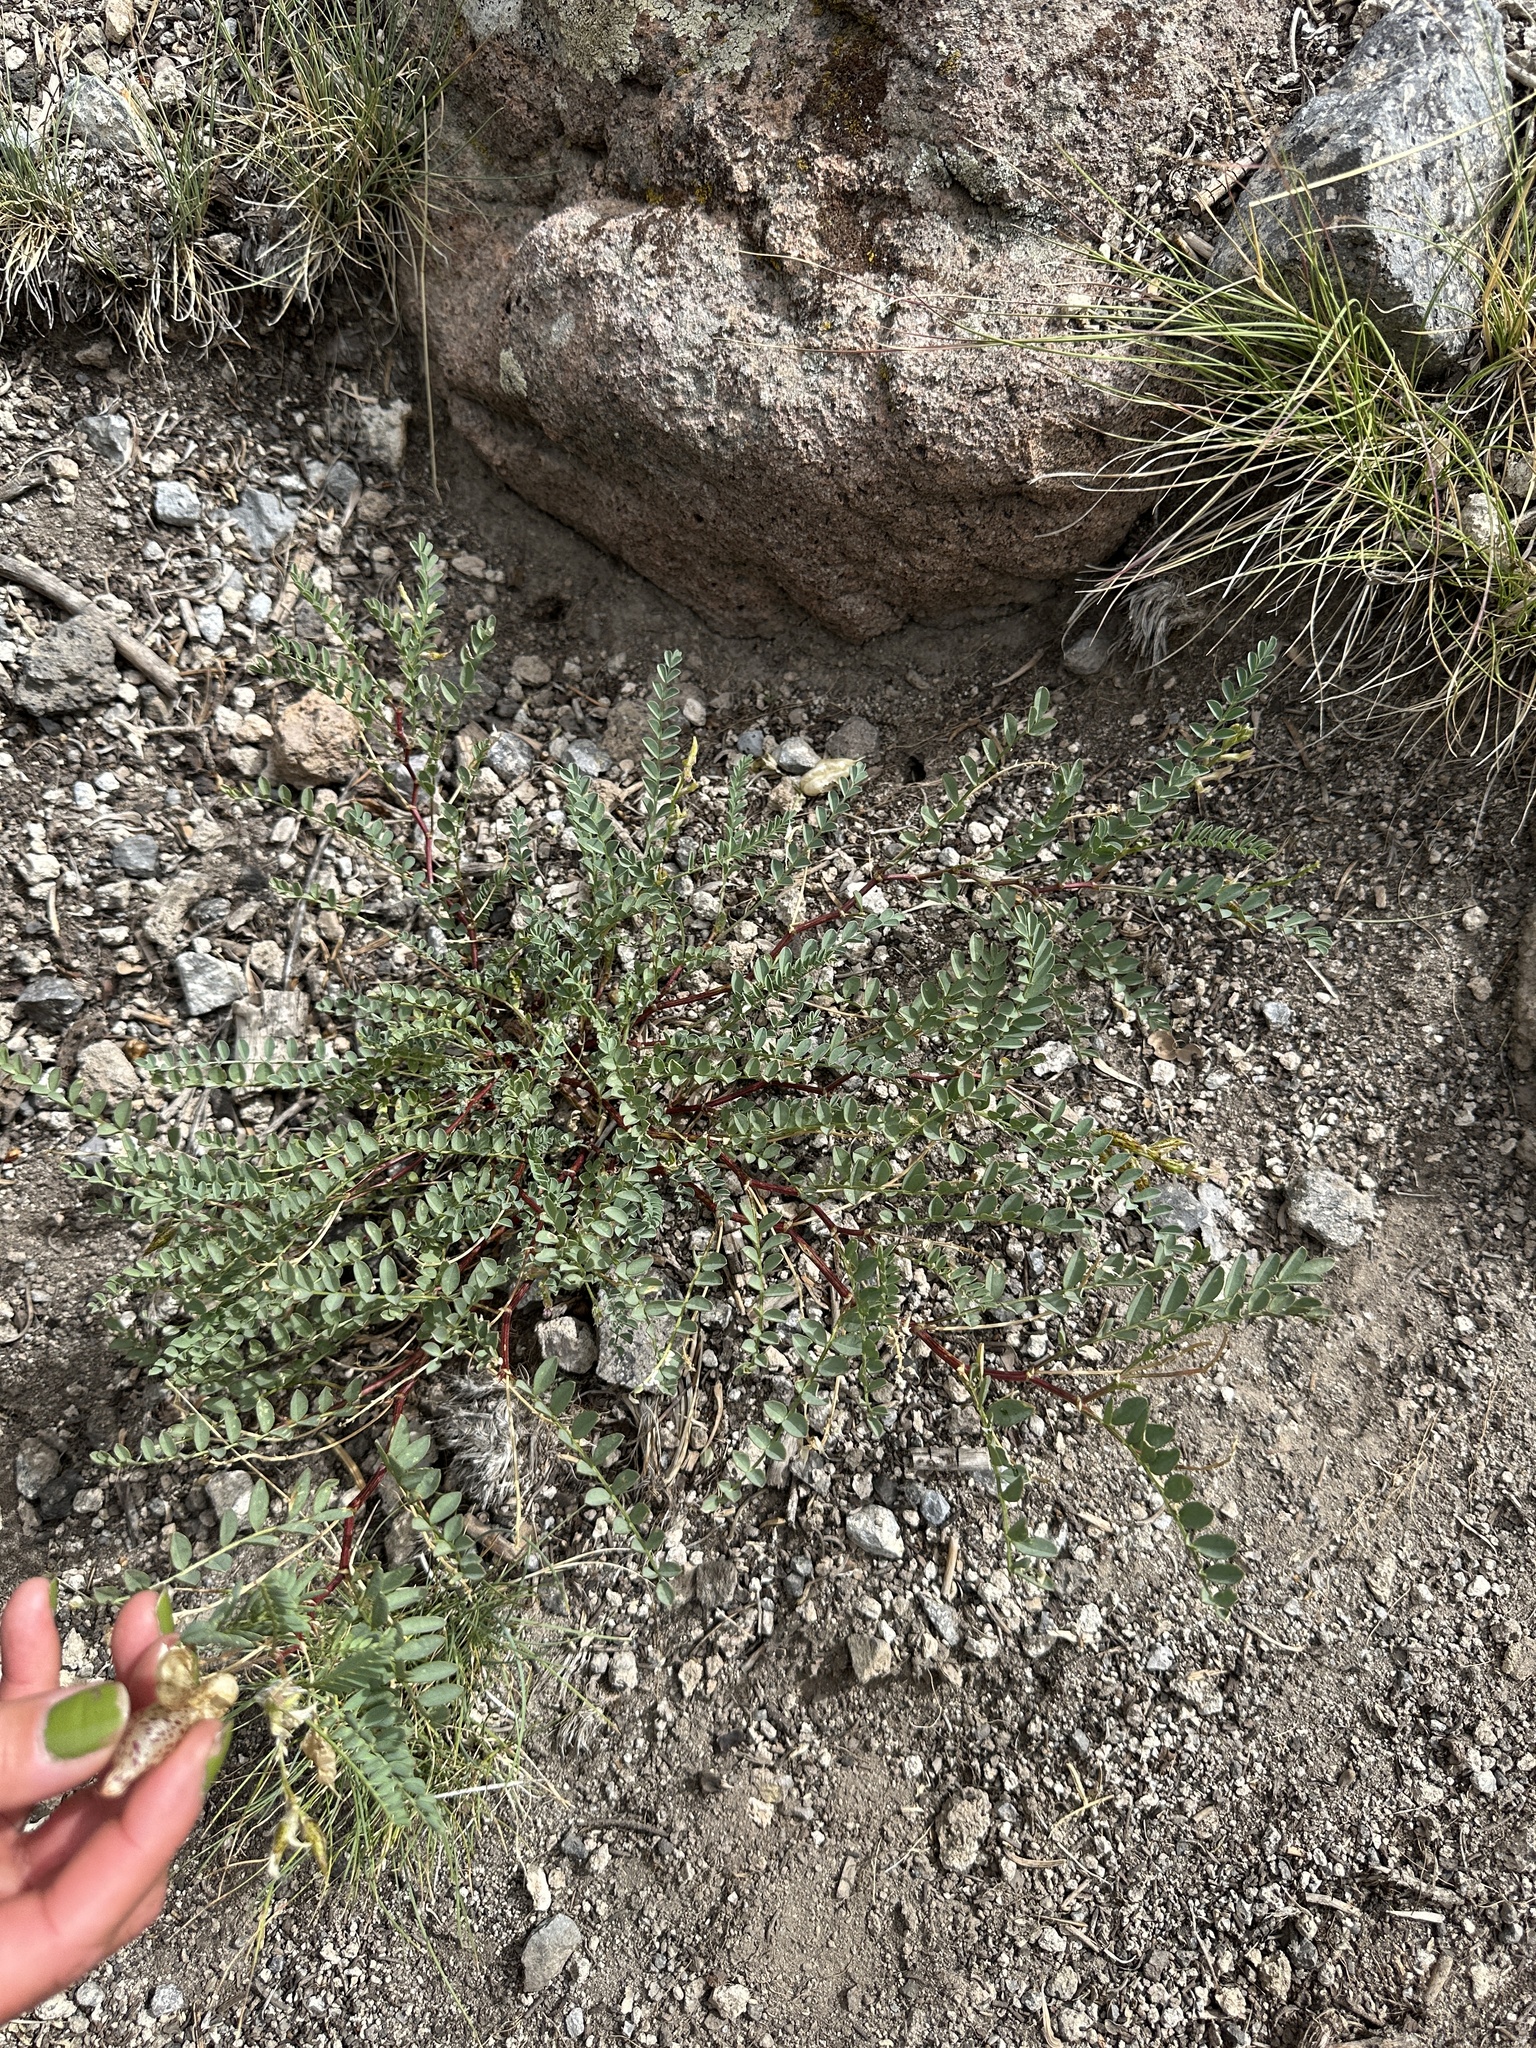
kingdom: Plantae
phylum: Tracheophyta
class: Magnoliopsida
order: Fabales
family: Fabaceae
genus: Astragalus
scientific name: Astragalus lentiginosus
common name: Freckled milkvetch
